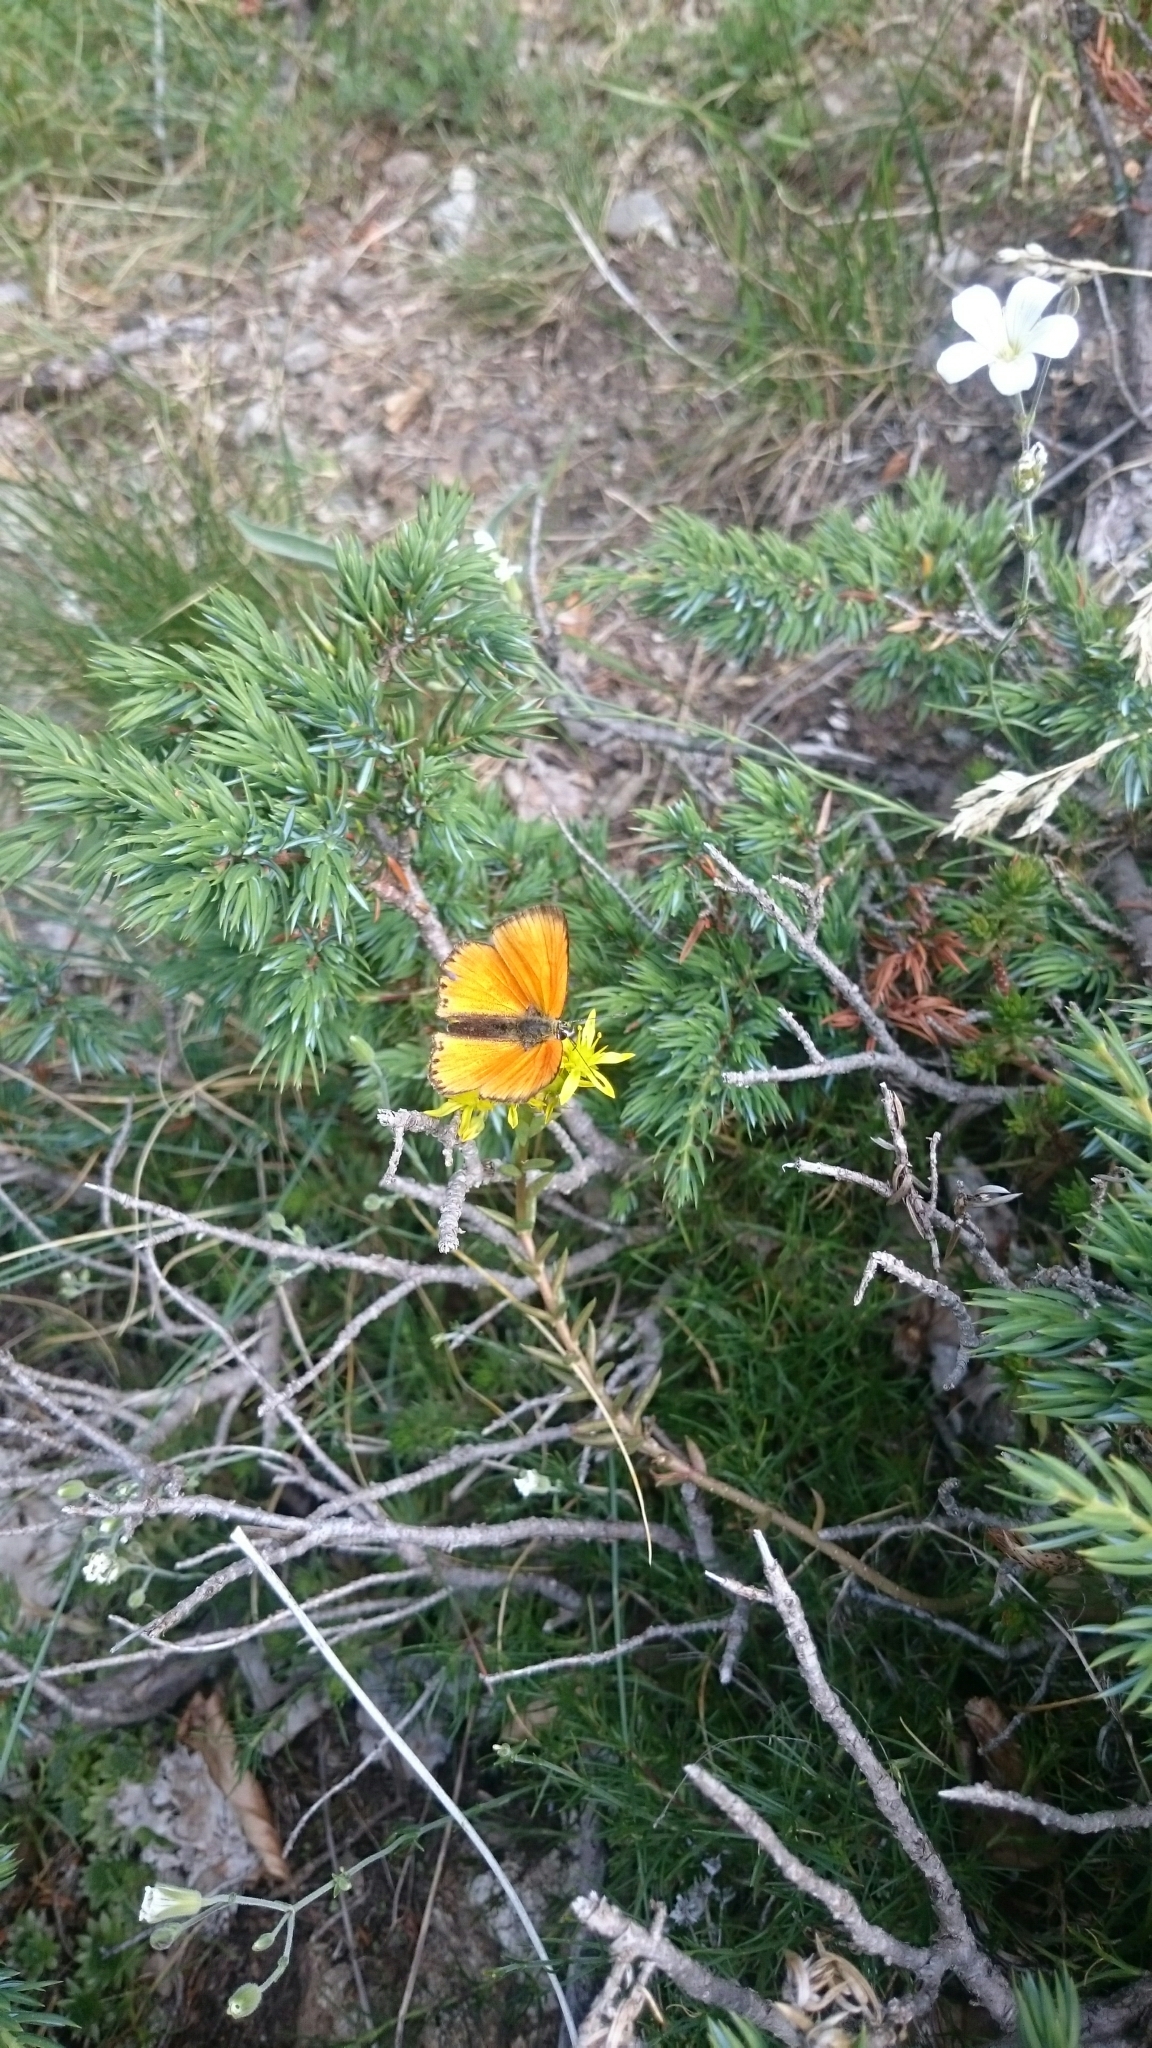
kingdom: Animalia
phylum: Arthropoda
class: Insecta
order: Lepidoptera
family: Lycaenidae
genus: Lycaena
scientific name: Lycaena virgaureae
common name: Scarce copper
